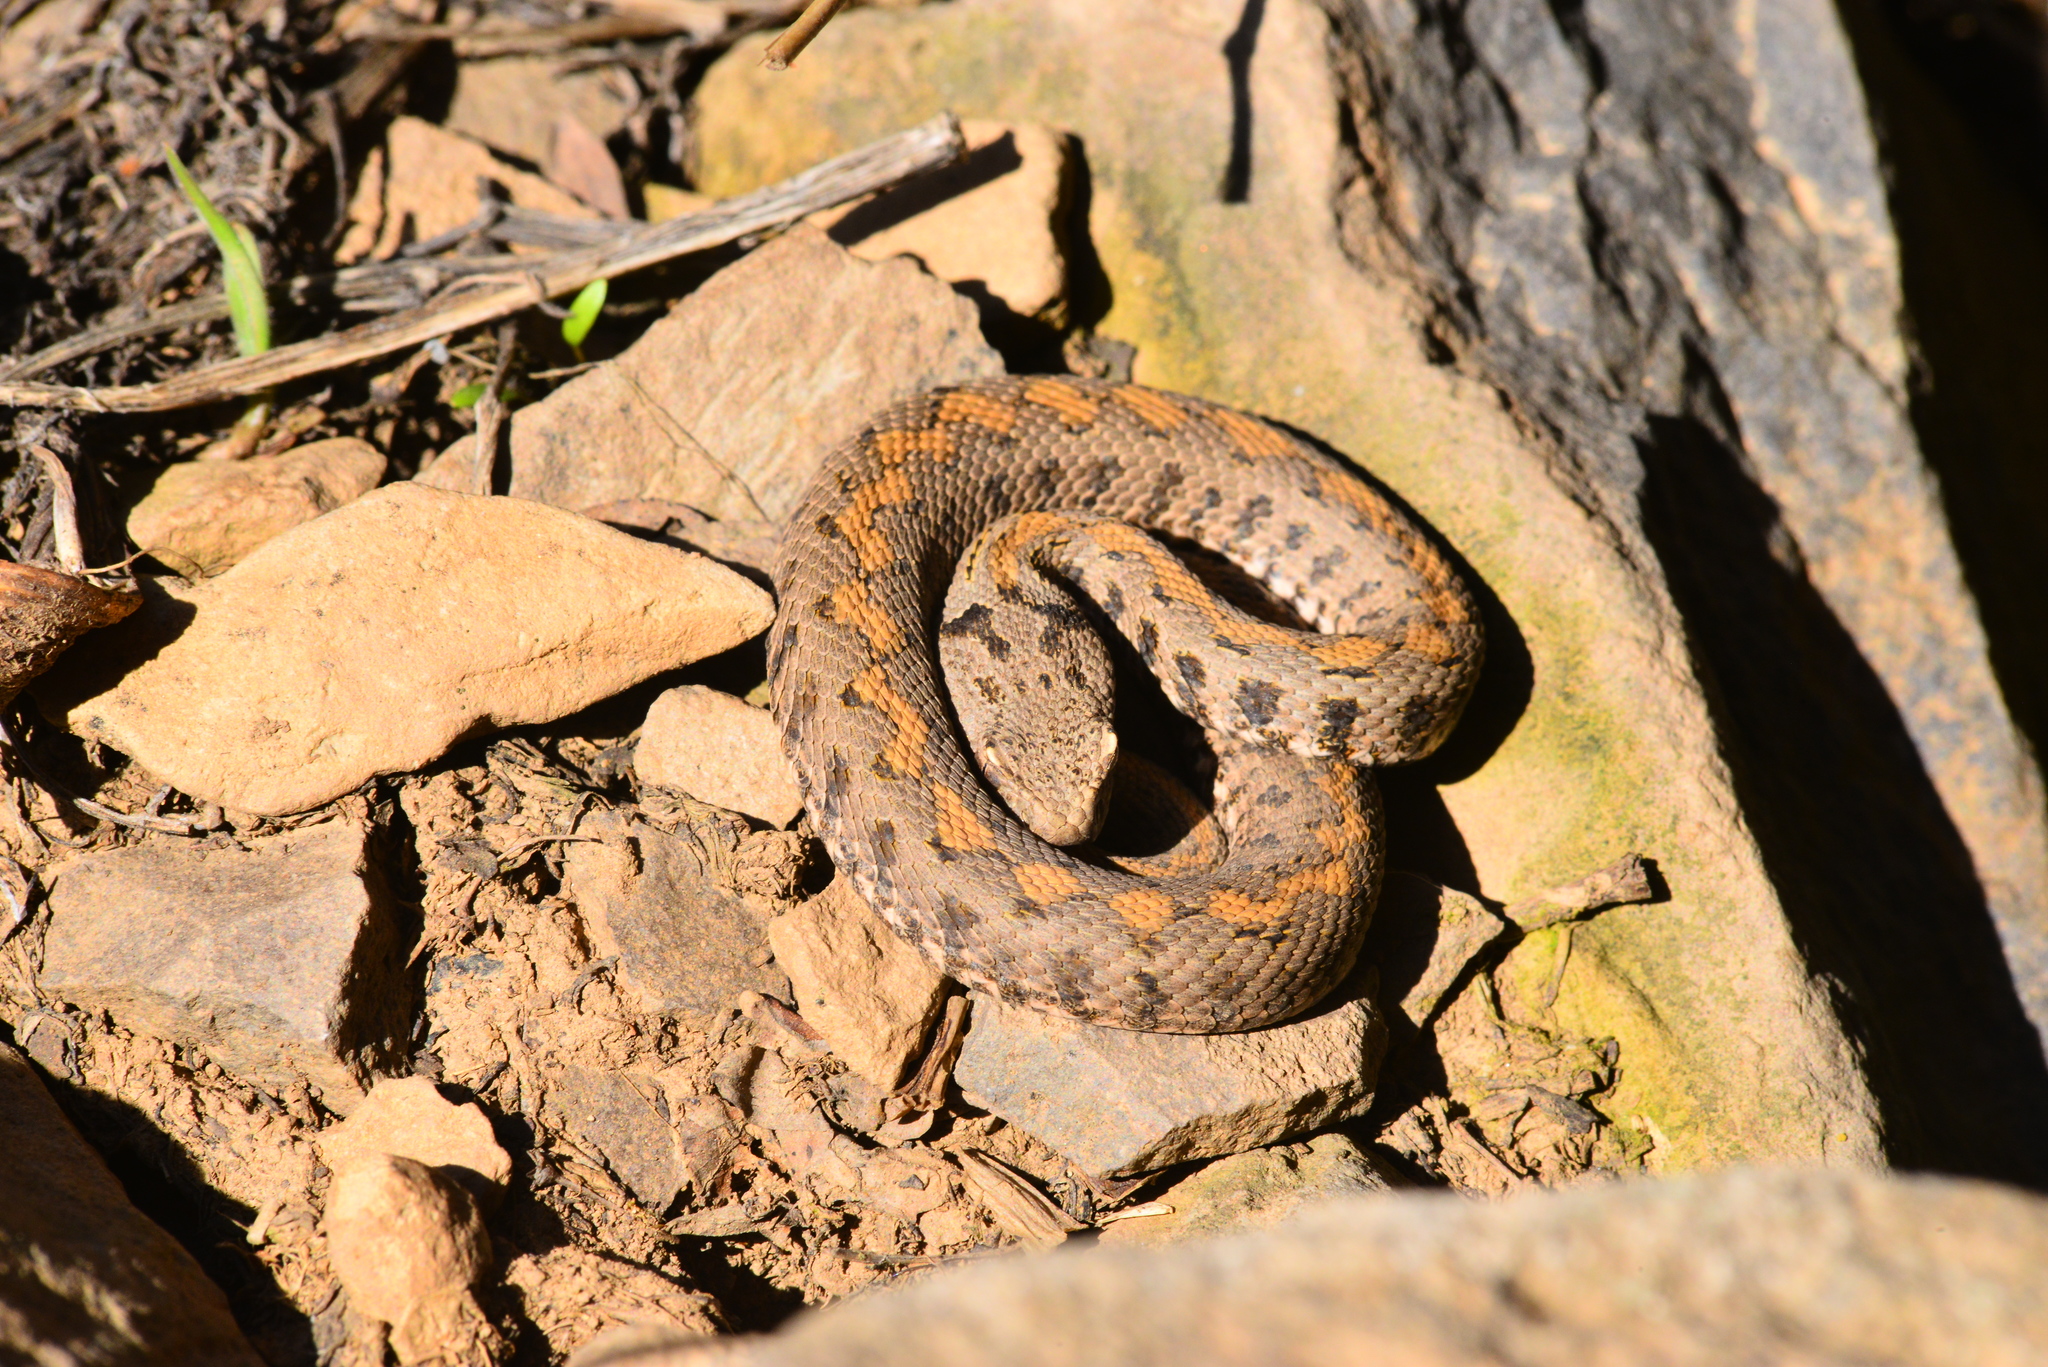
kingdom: Animalia
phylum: Chordata
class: Squamata
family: Viperidae
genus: Montivipera
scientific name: Montivipera raddei
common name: Armenian viper
